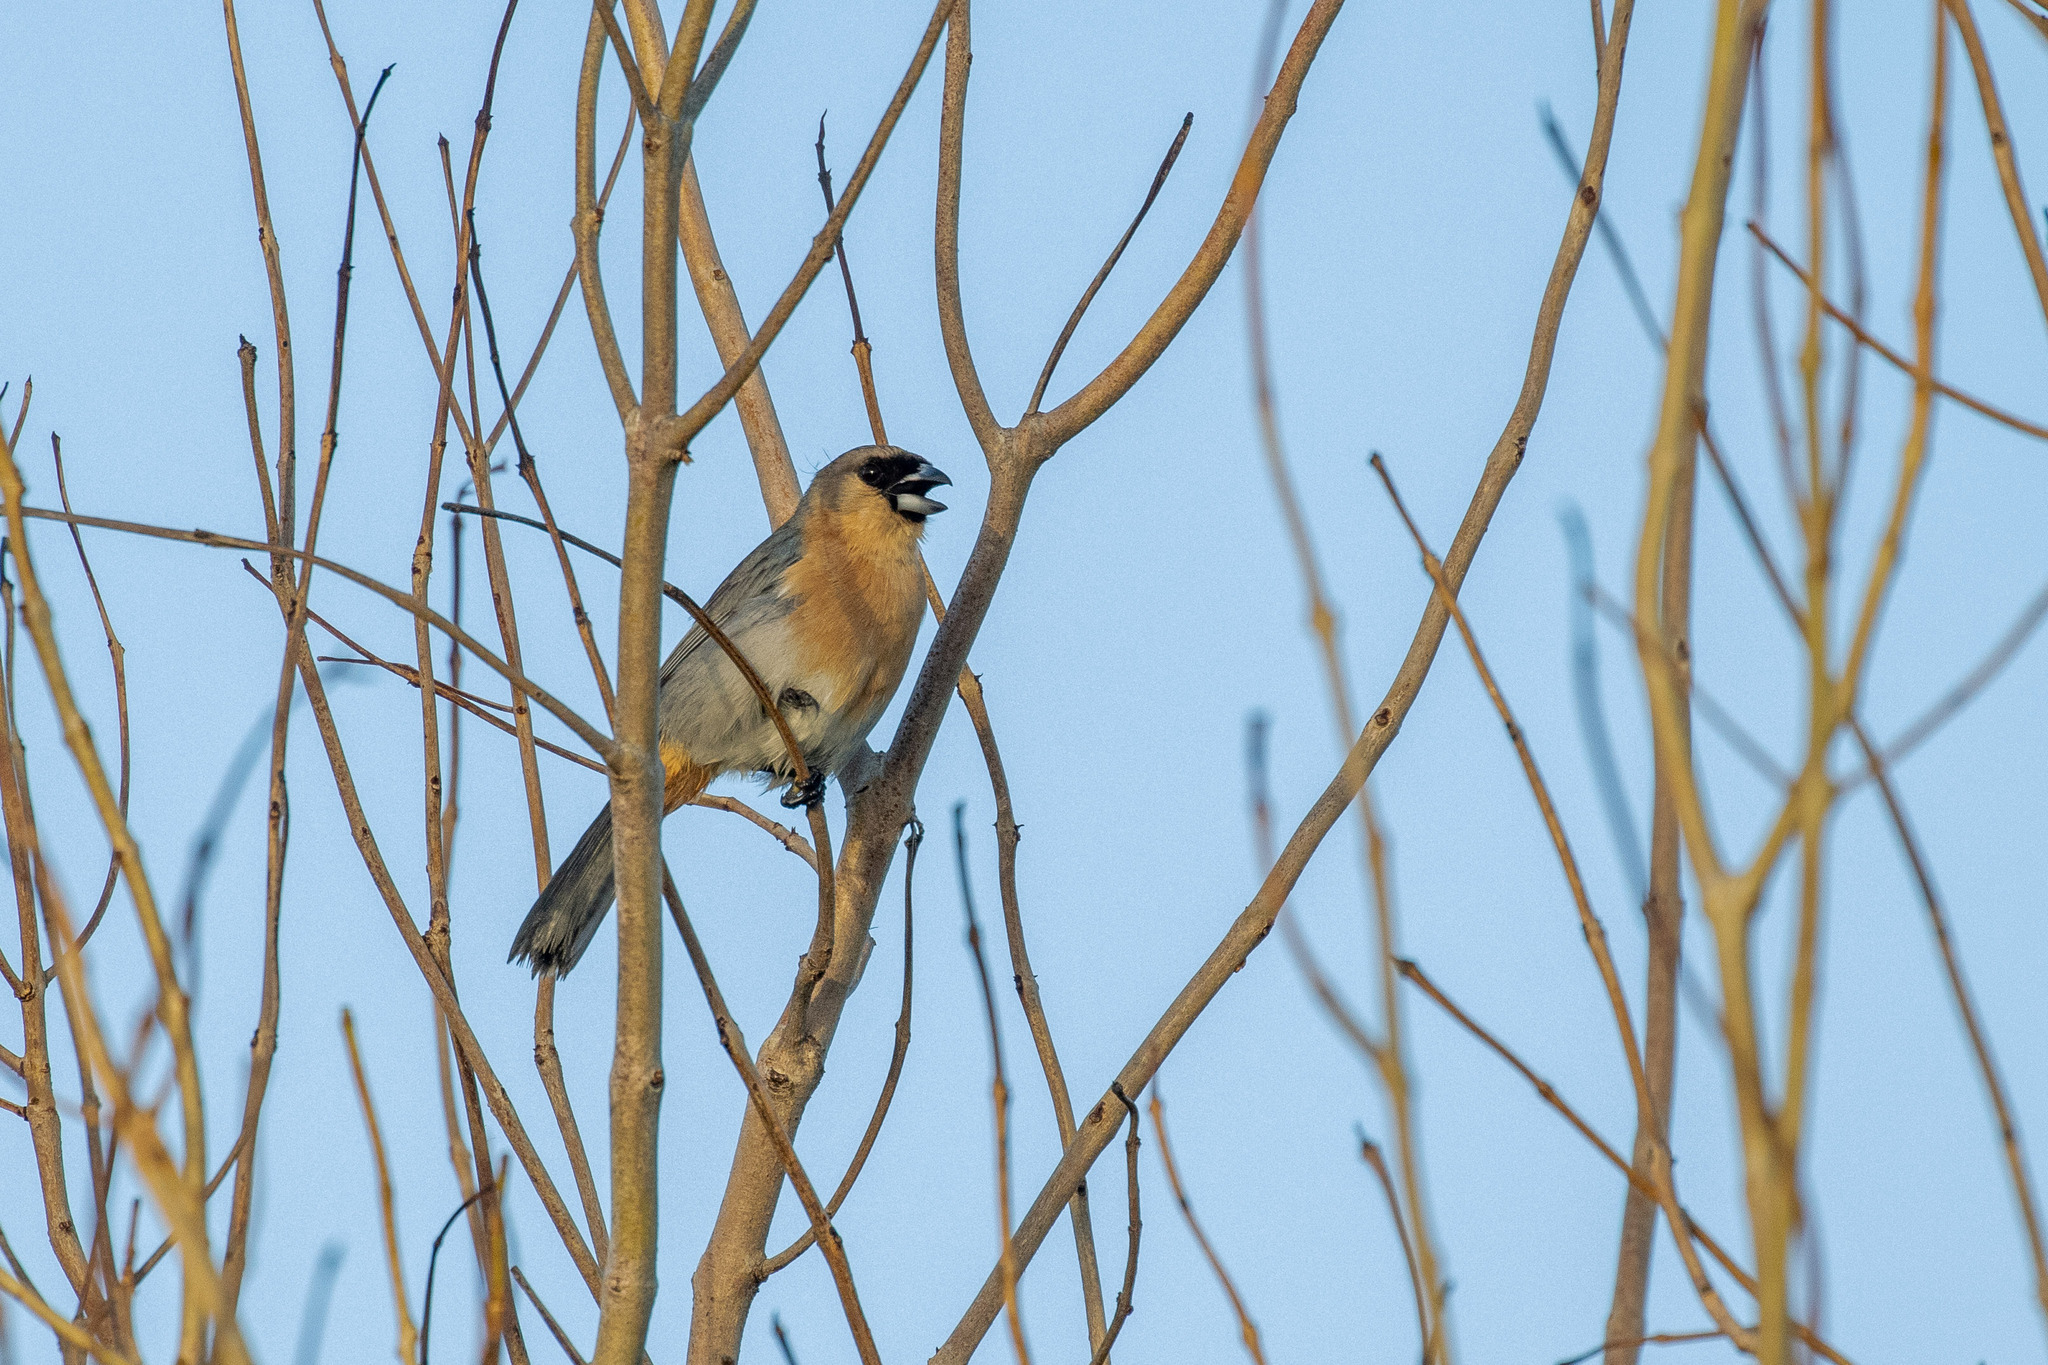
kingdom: Animalia
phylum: Chordata
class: Aves
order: Passeriformes
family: Thraupidae
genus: Schistochlamys
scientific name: Schistochlamys ruficapillus
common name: Cinnamon tanager
